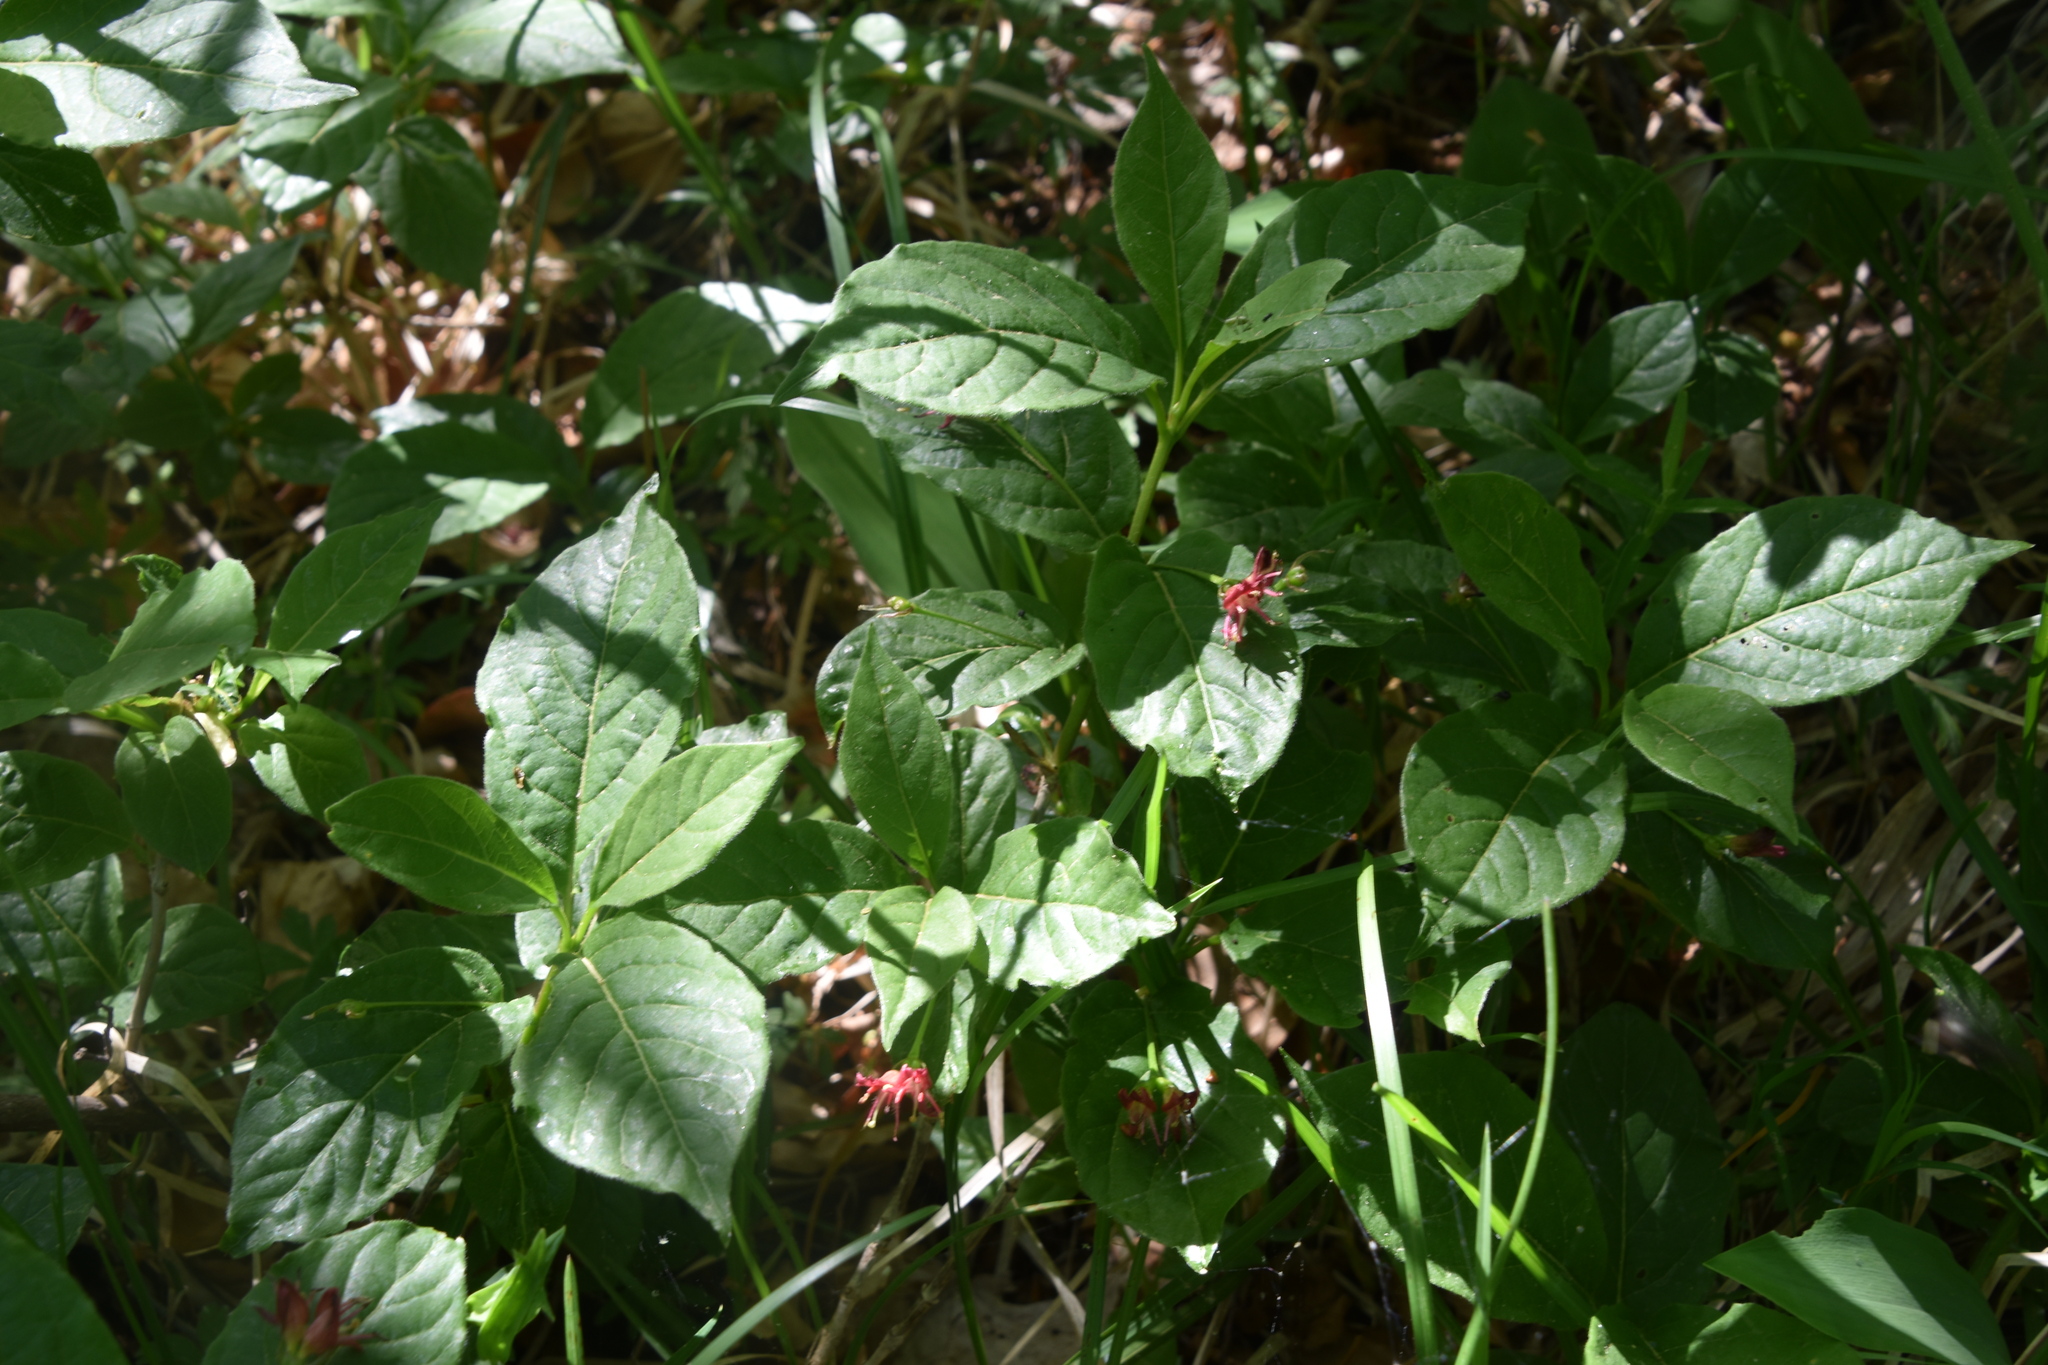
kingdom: Plantae
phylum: Tracheophyta
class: Magnoliopsida
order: Dipsacales
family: Caprifoliaceae
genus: Lonicera
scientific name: Lonicera alpigena
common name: Alpine honeysuckle
